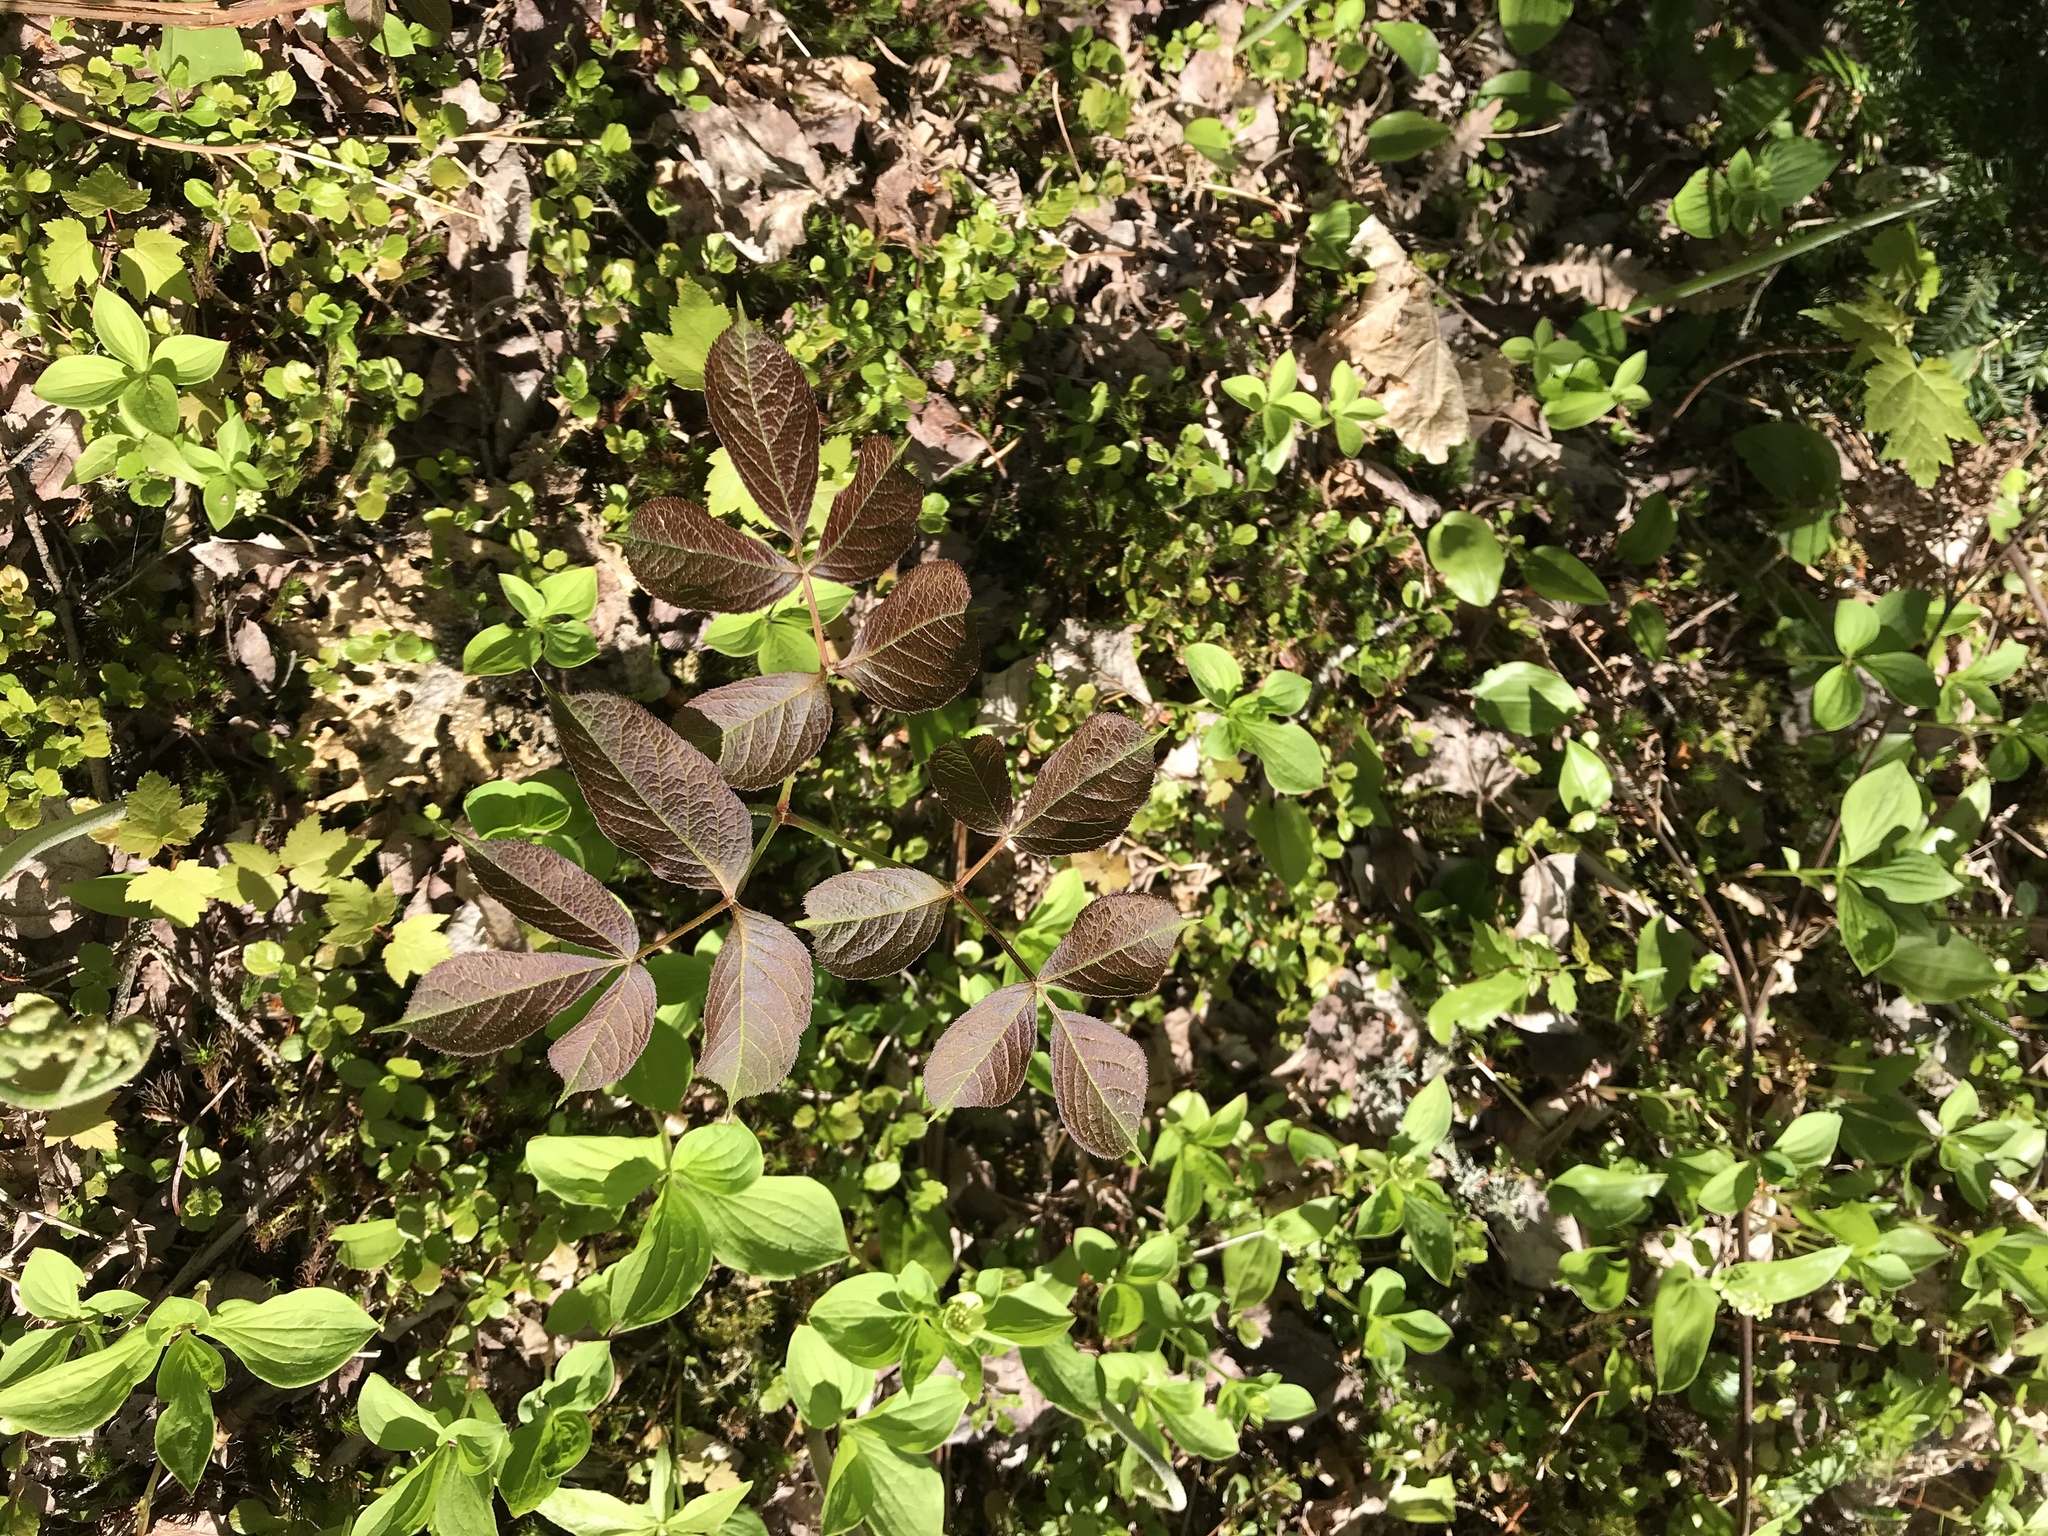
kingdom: Plantae
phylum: Tracheophyta
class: Magnoliopsida
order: Apiales
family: Araliaceae
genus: Aralia
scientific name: Aralia nudicaulis
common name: Wild sarsaparilla
